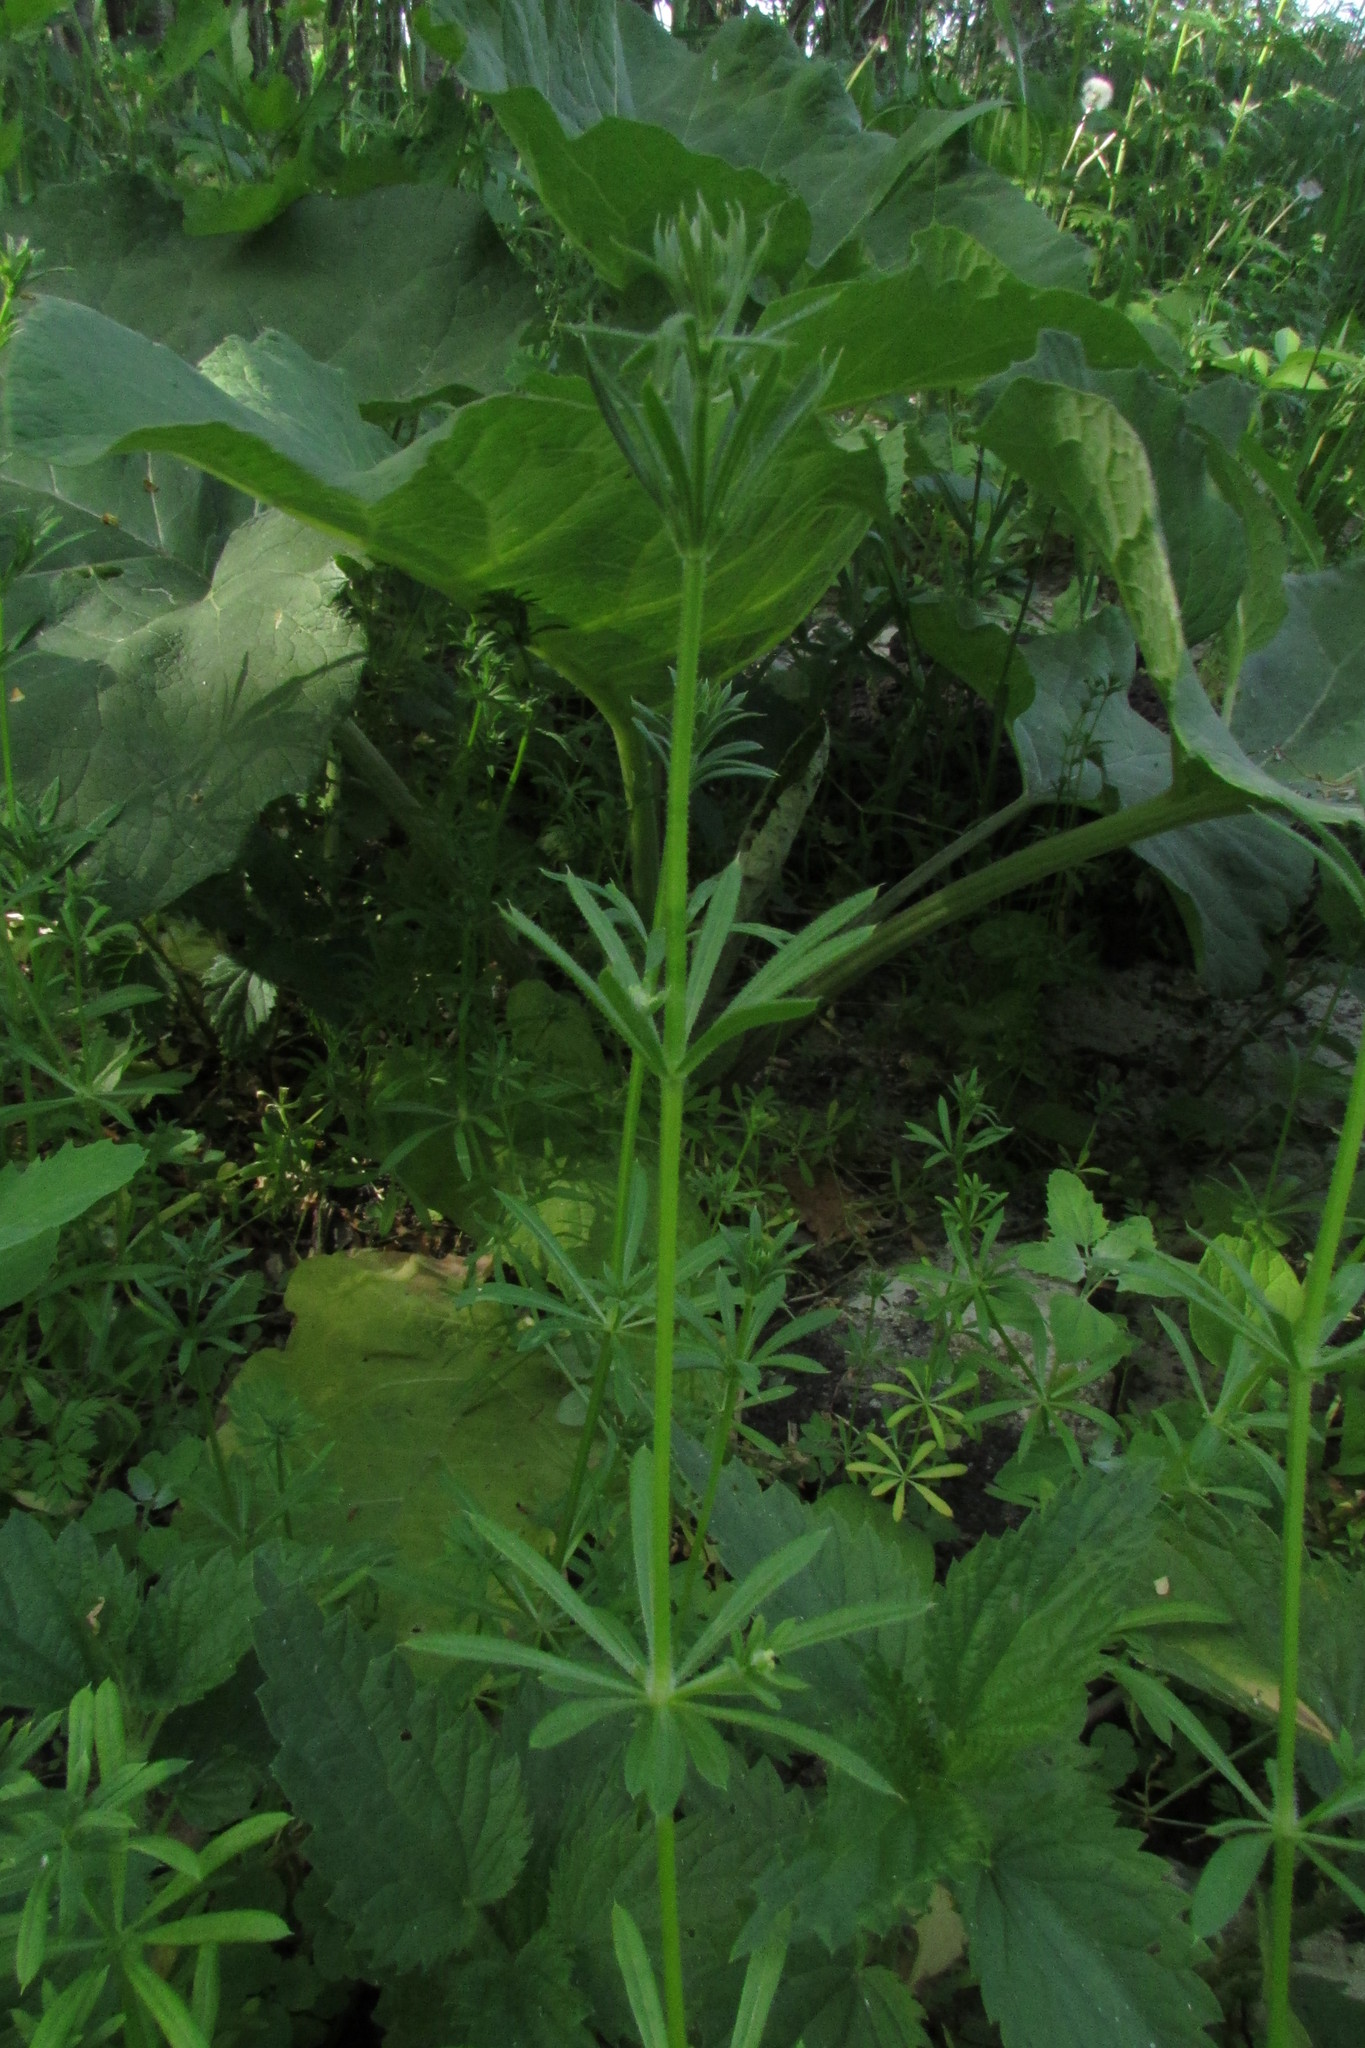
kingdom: Plantae
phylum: Tracheophyta
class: Magnoliopsida
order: Gentianales
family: Rubiaceae
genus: Galium
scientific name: Galium aparine
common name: Cleavers
